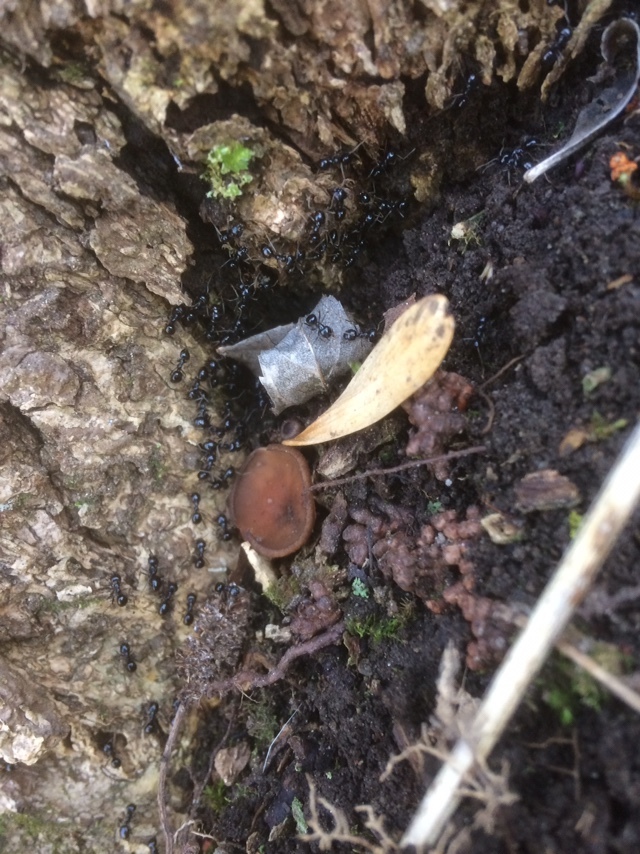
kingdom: Animalia
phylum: Arthropoda
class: Insecta
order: Hymenoptera
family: Formicidae
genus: Lasius
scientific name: Lasius fuliginosus
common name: Jet ant
